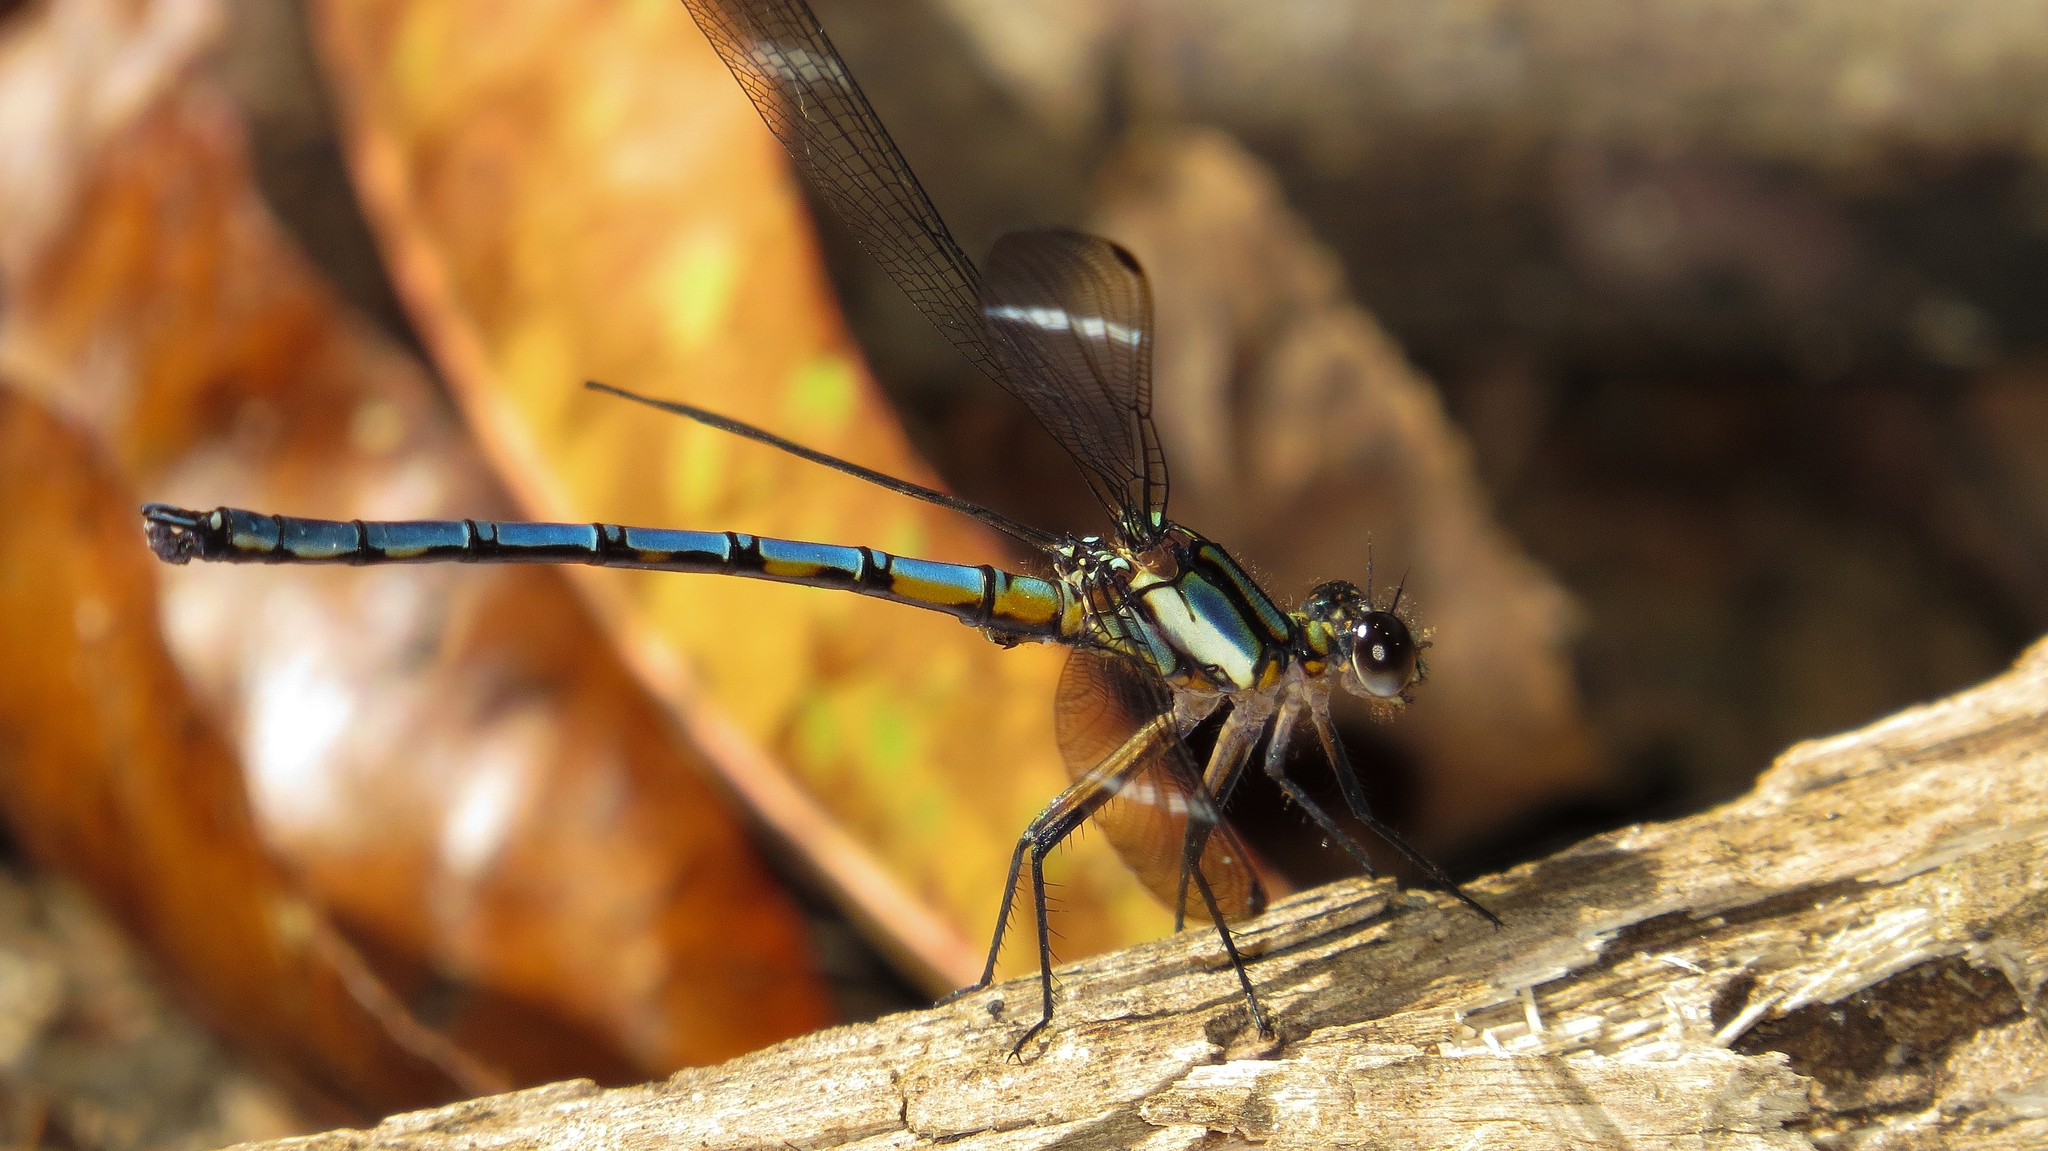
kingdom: Animalia
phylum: Arthropoda
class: Insecta
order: Odonata
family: Lestoideidae
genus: Diphlebia
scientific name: Diphlebia lestoides
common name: Whitewater rockmaster
